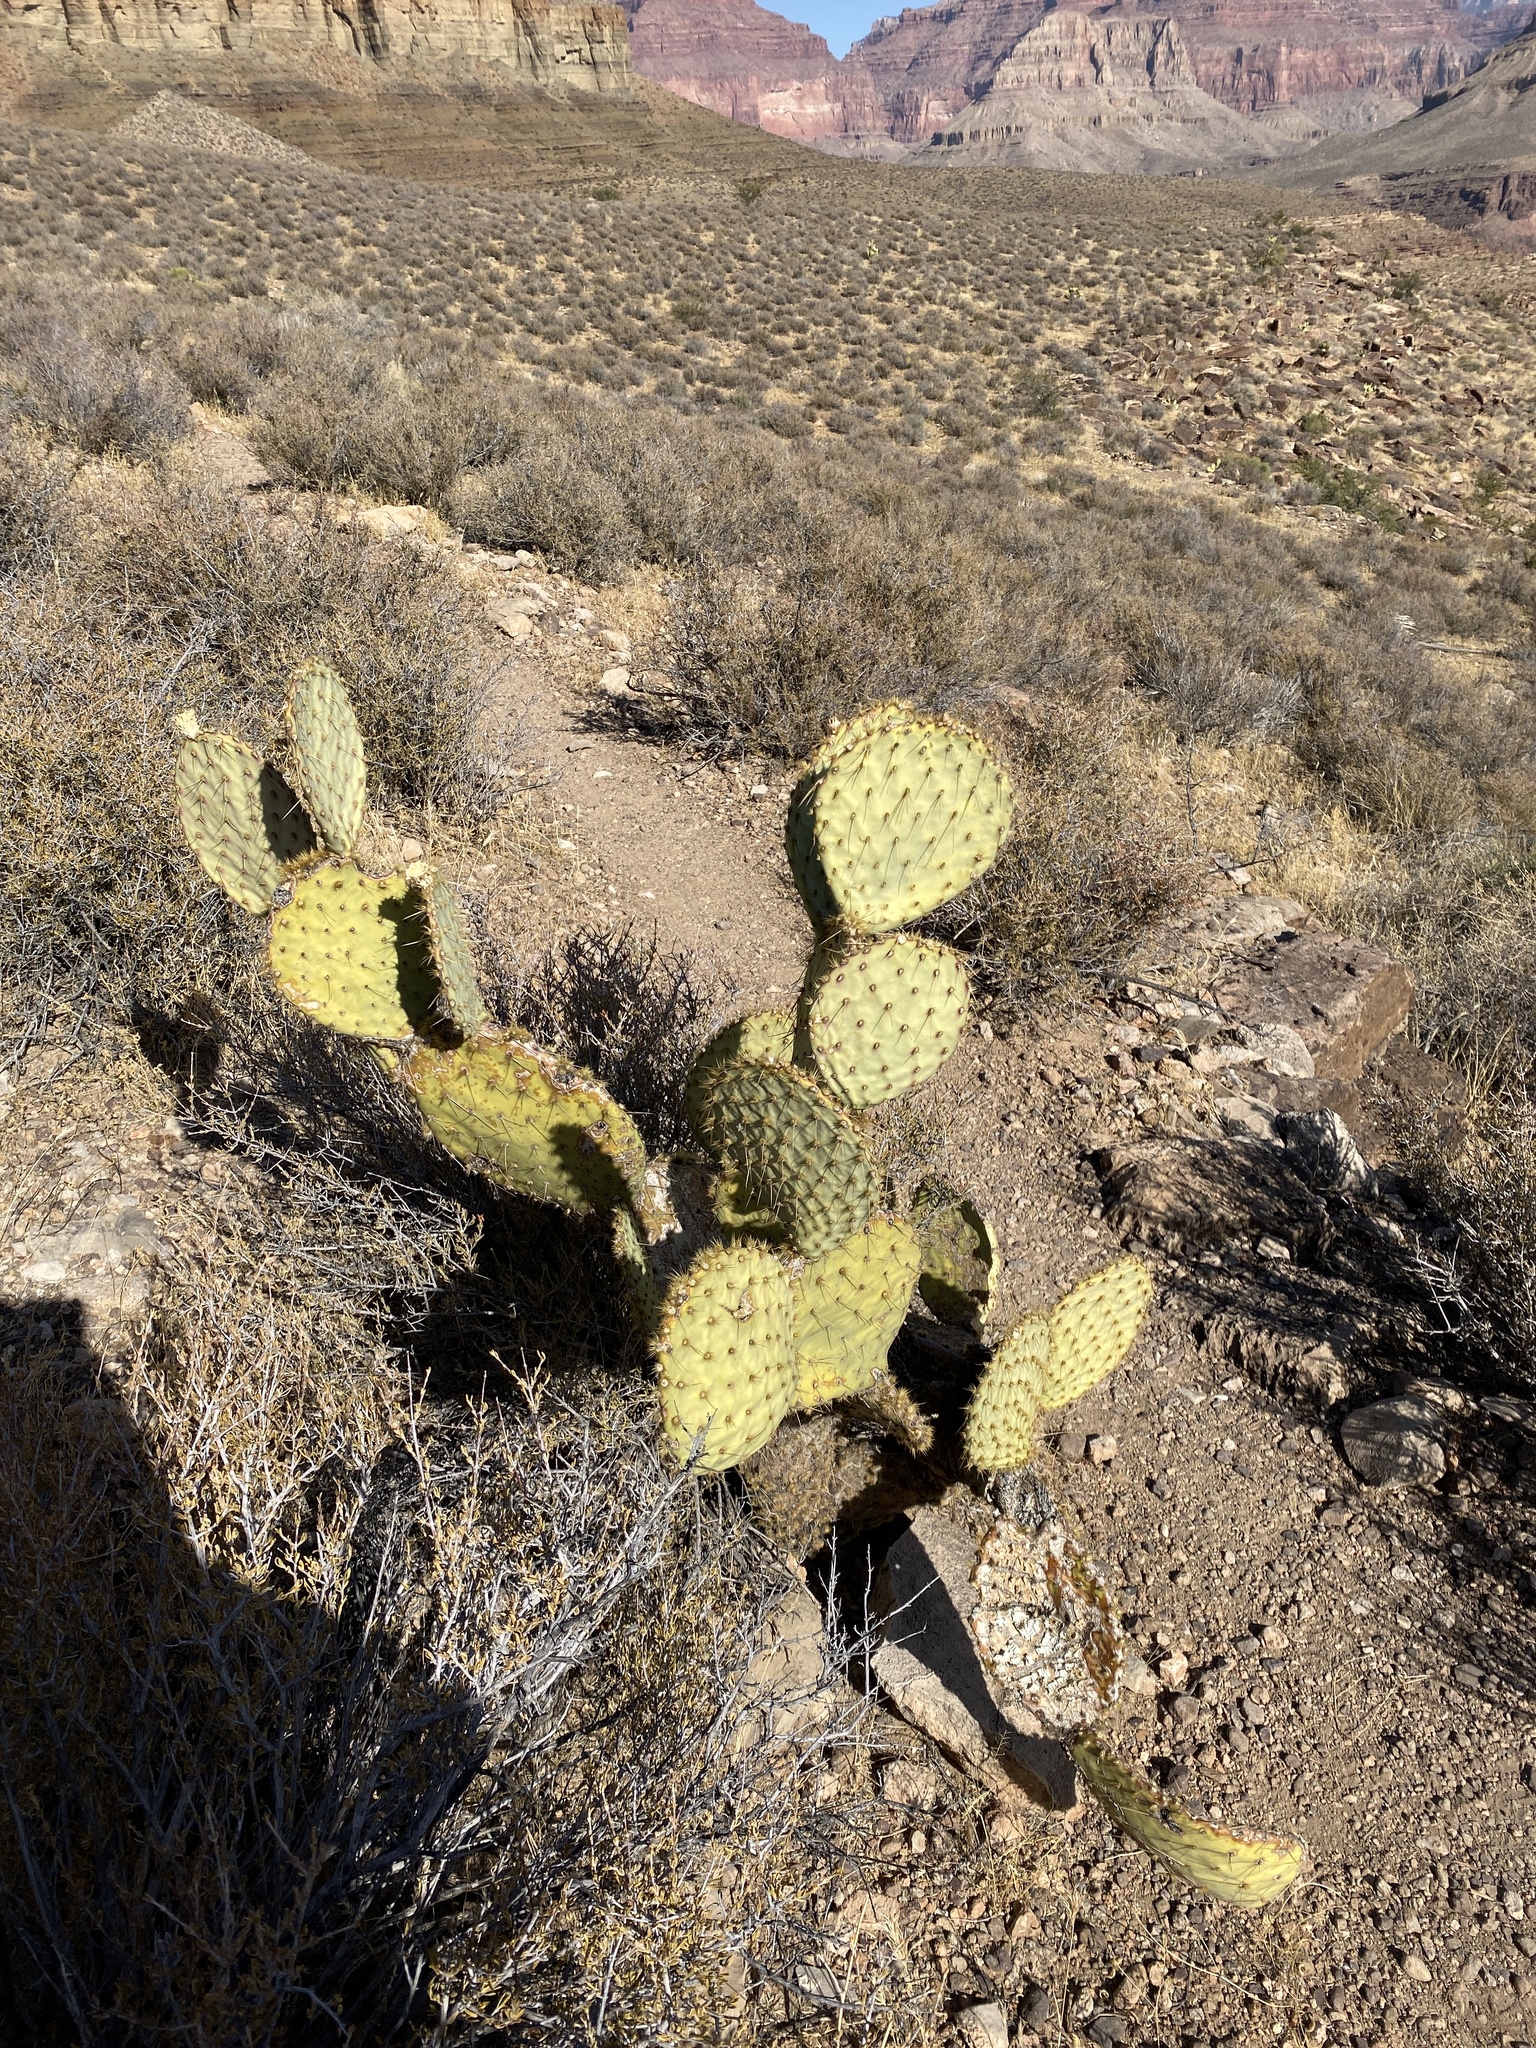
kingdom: Plantae
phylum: Tracheophyta
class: Magnoliopsida
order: Caryophyllales
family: Cactaceae
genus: Opuntia
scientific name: Opuntia chlorotica
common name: Dollar-joint prickly-pear
